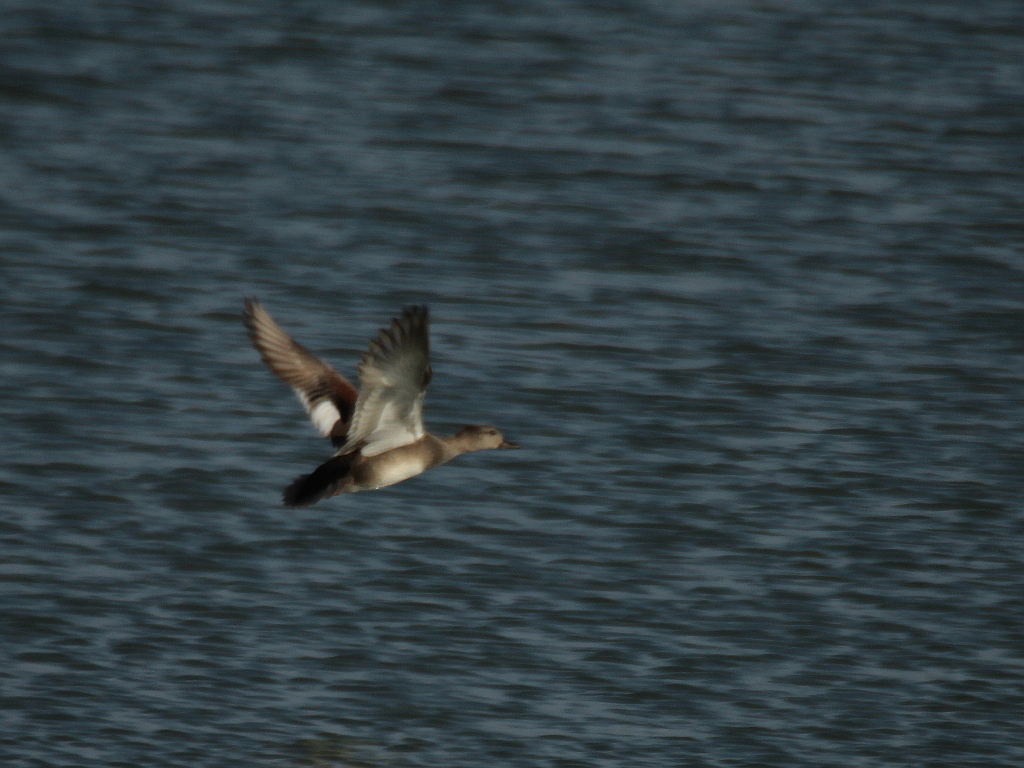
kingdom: Animalia
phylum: Chordata
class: Aves
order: Anseriformes
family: Anatidae
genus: Mareca
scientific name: Mareca strepera
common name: Gadwall
